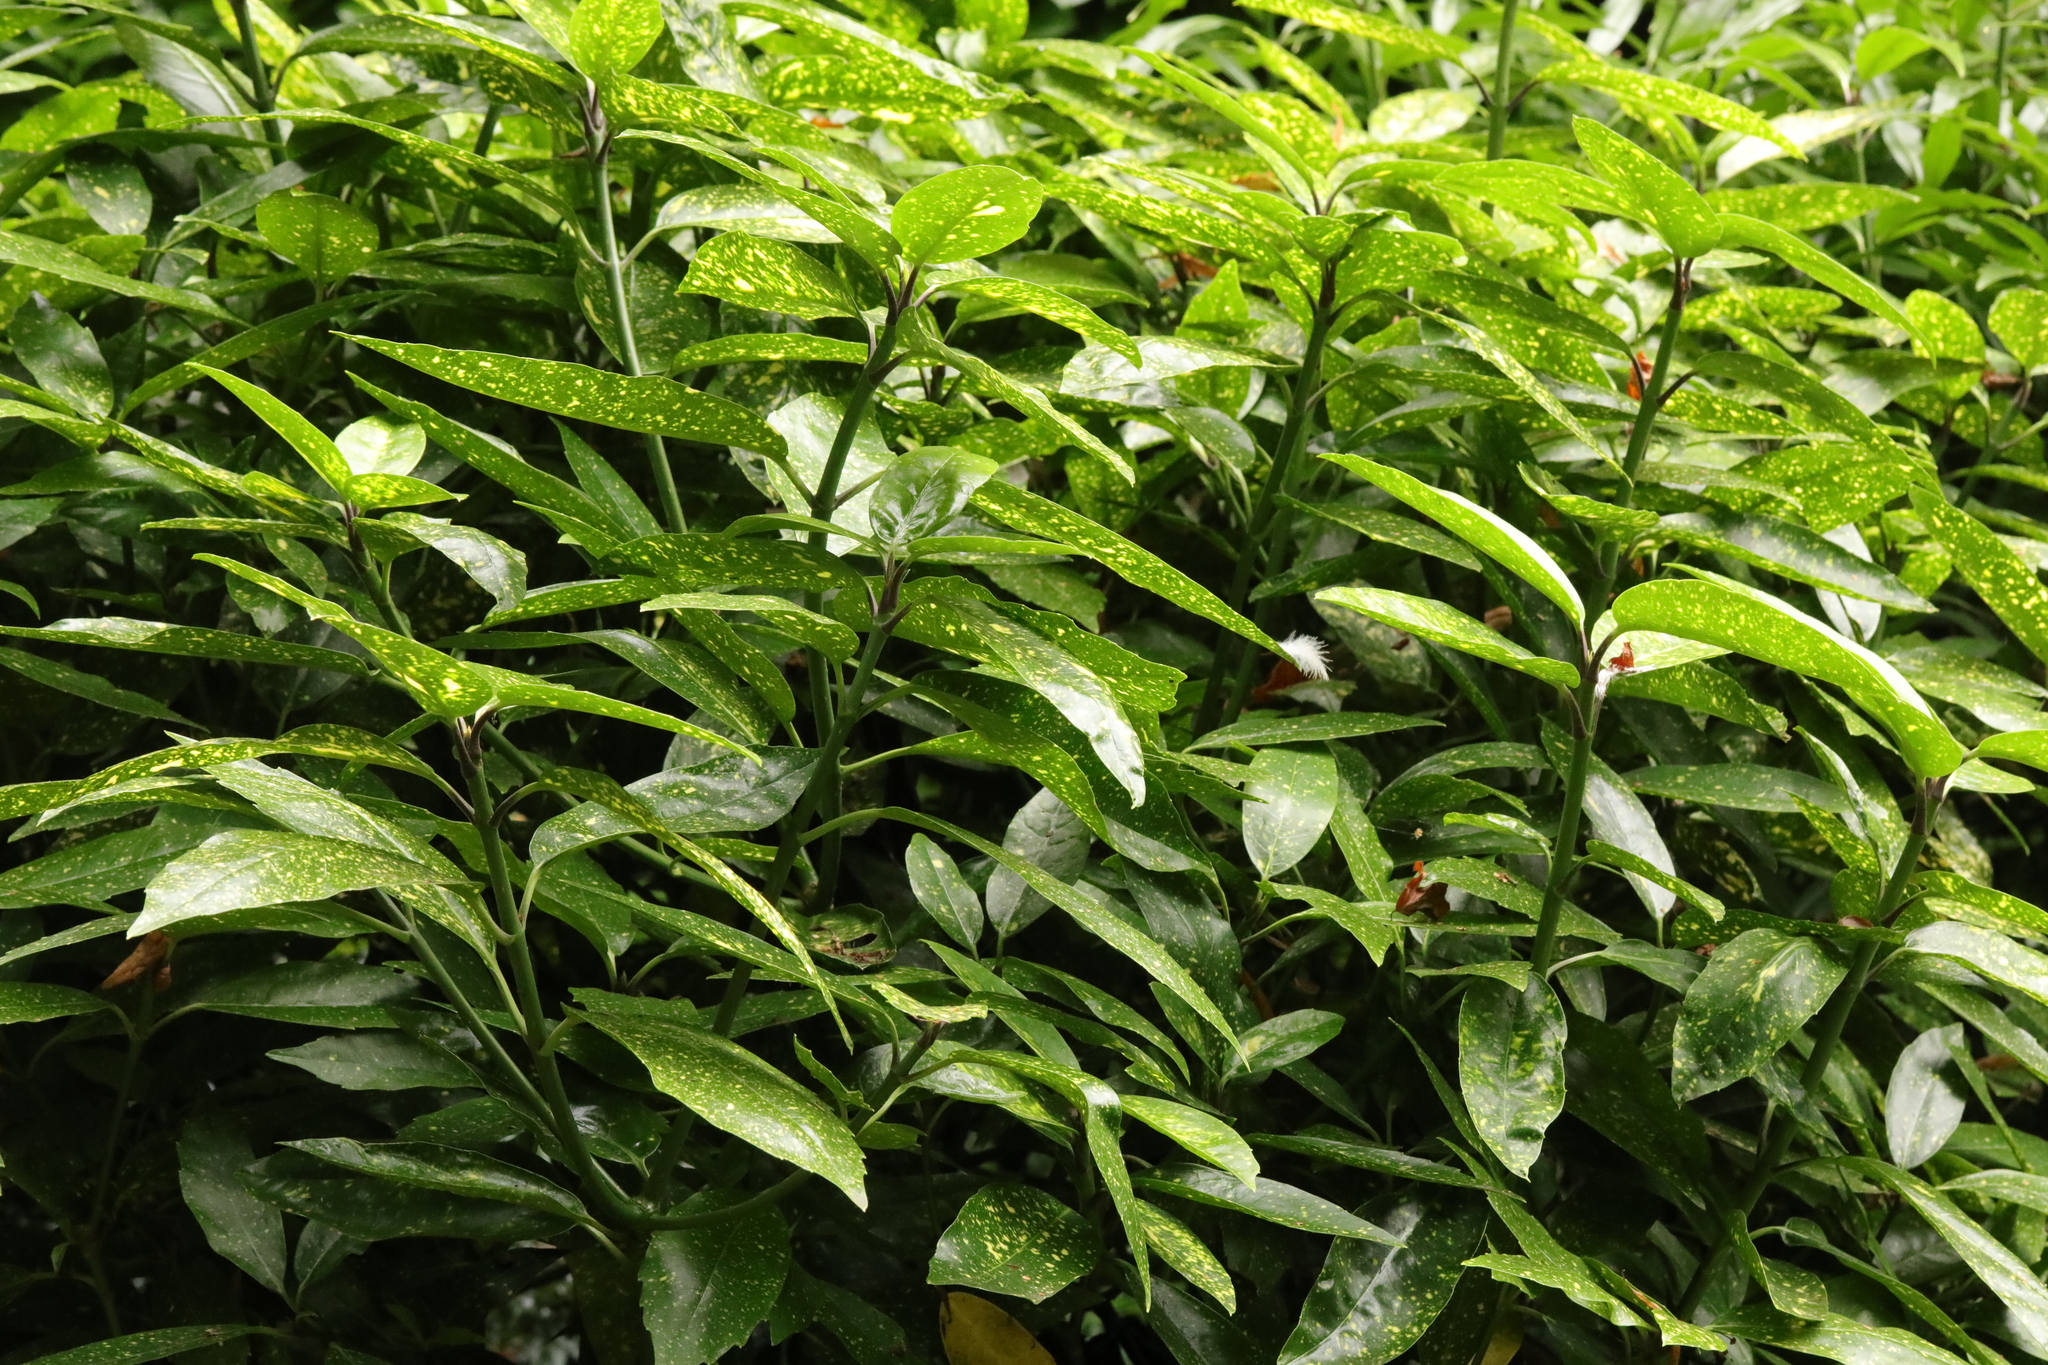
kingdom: Plantae
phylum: Tracheophyta
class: Magnoliopsida
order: Garryales
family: Garryaceae
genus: Aucuba
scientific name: Aucuba japonica
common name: Spotted-laurel
